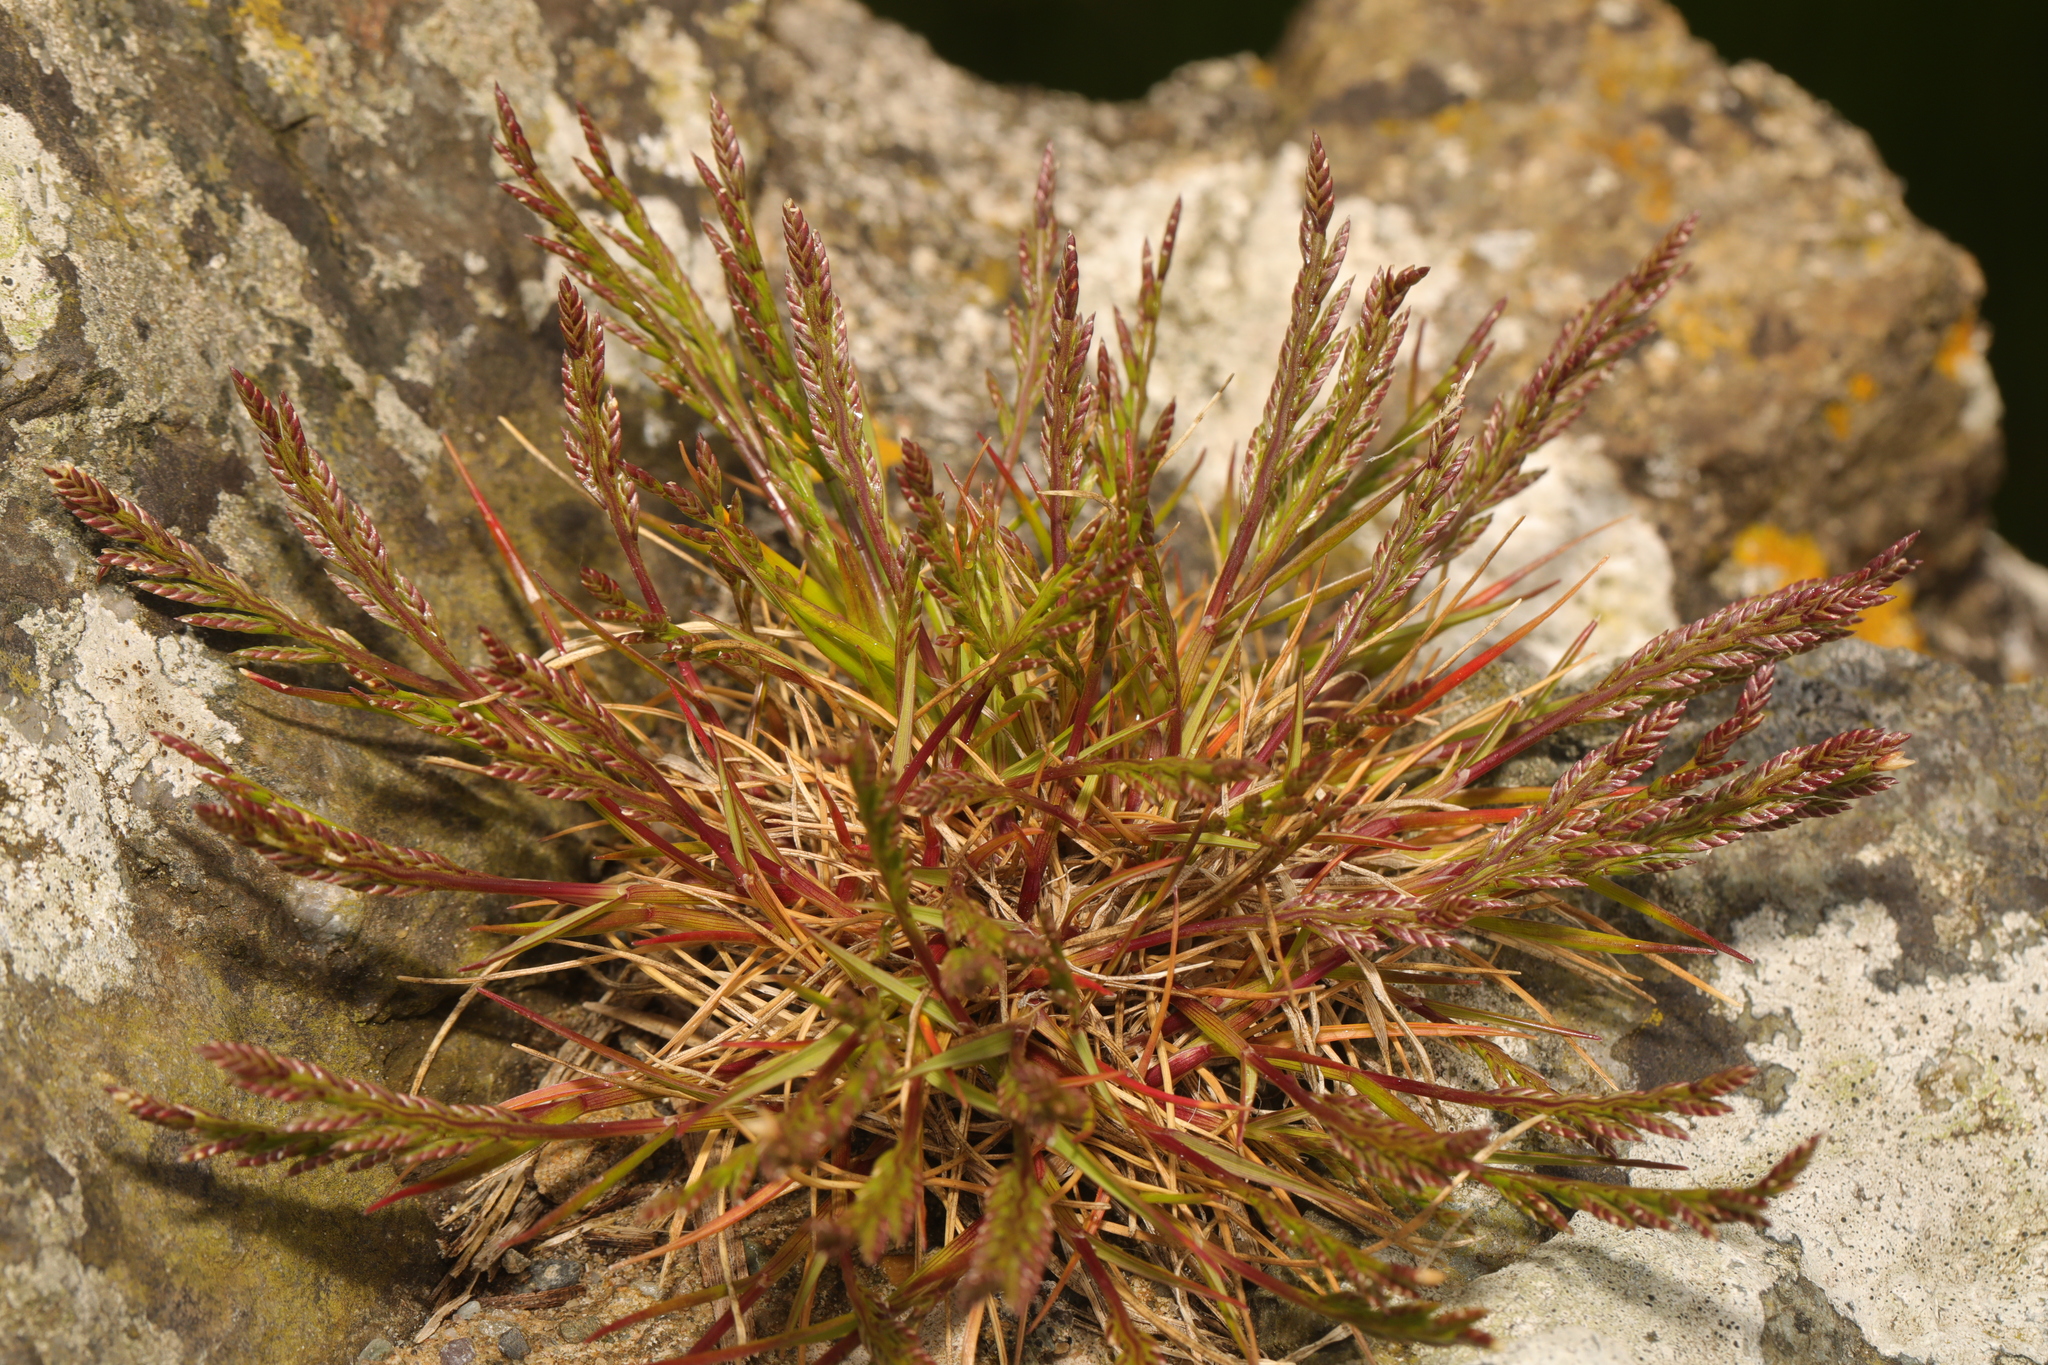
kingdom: Plantae
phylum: Tracheophyta
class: Liliopsida
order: Poales
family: Poaceae
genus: Catapodium
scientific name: Catapodium marinum
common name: Sea fern-grass
